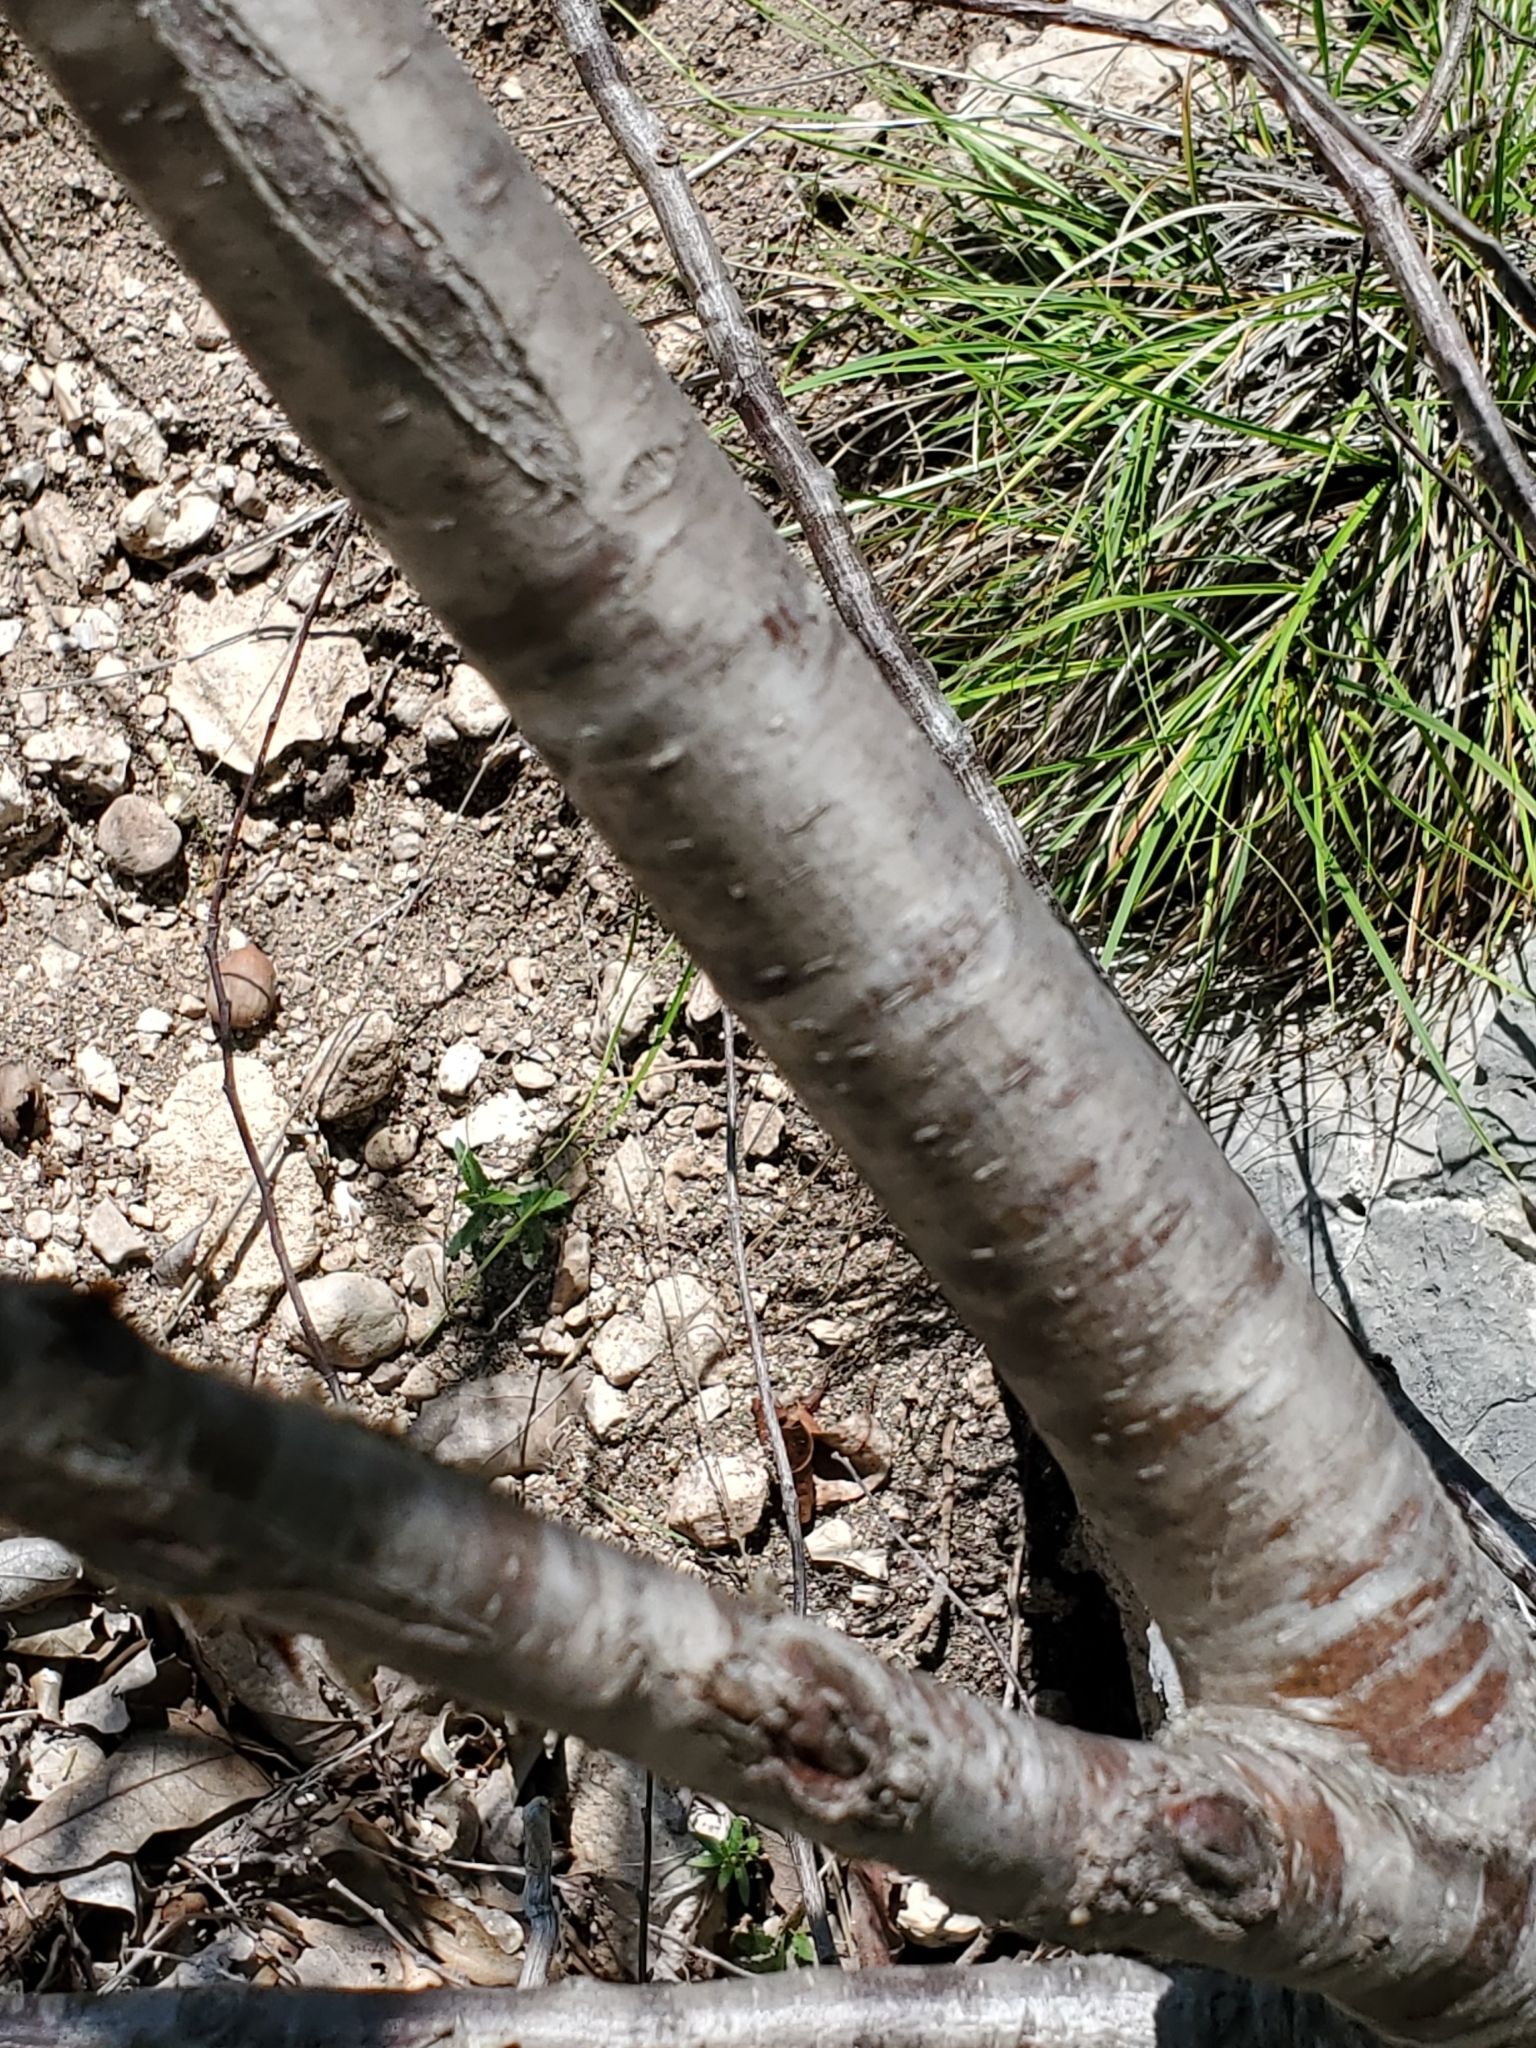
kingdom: Plantae
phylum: Tracheophyta
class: Magnoliopsida
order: Rosales
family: Rosaceae
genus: Prunus
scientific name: Prunus serotina
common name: Black cherry
